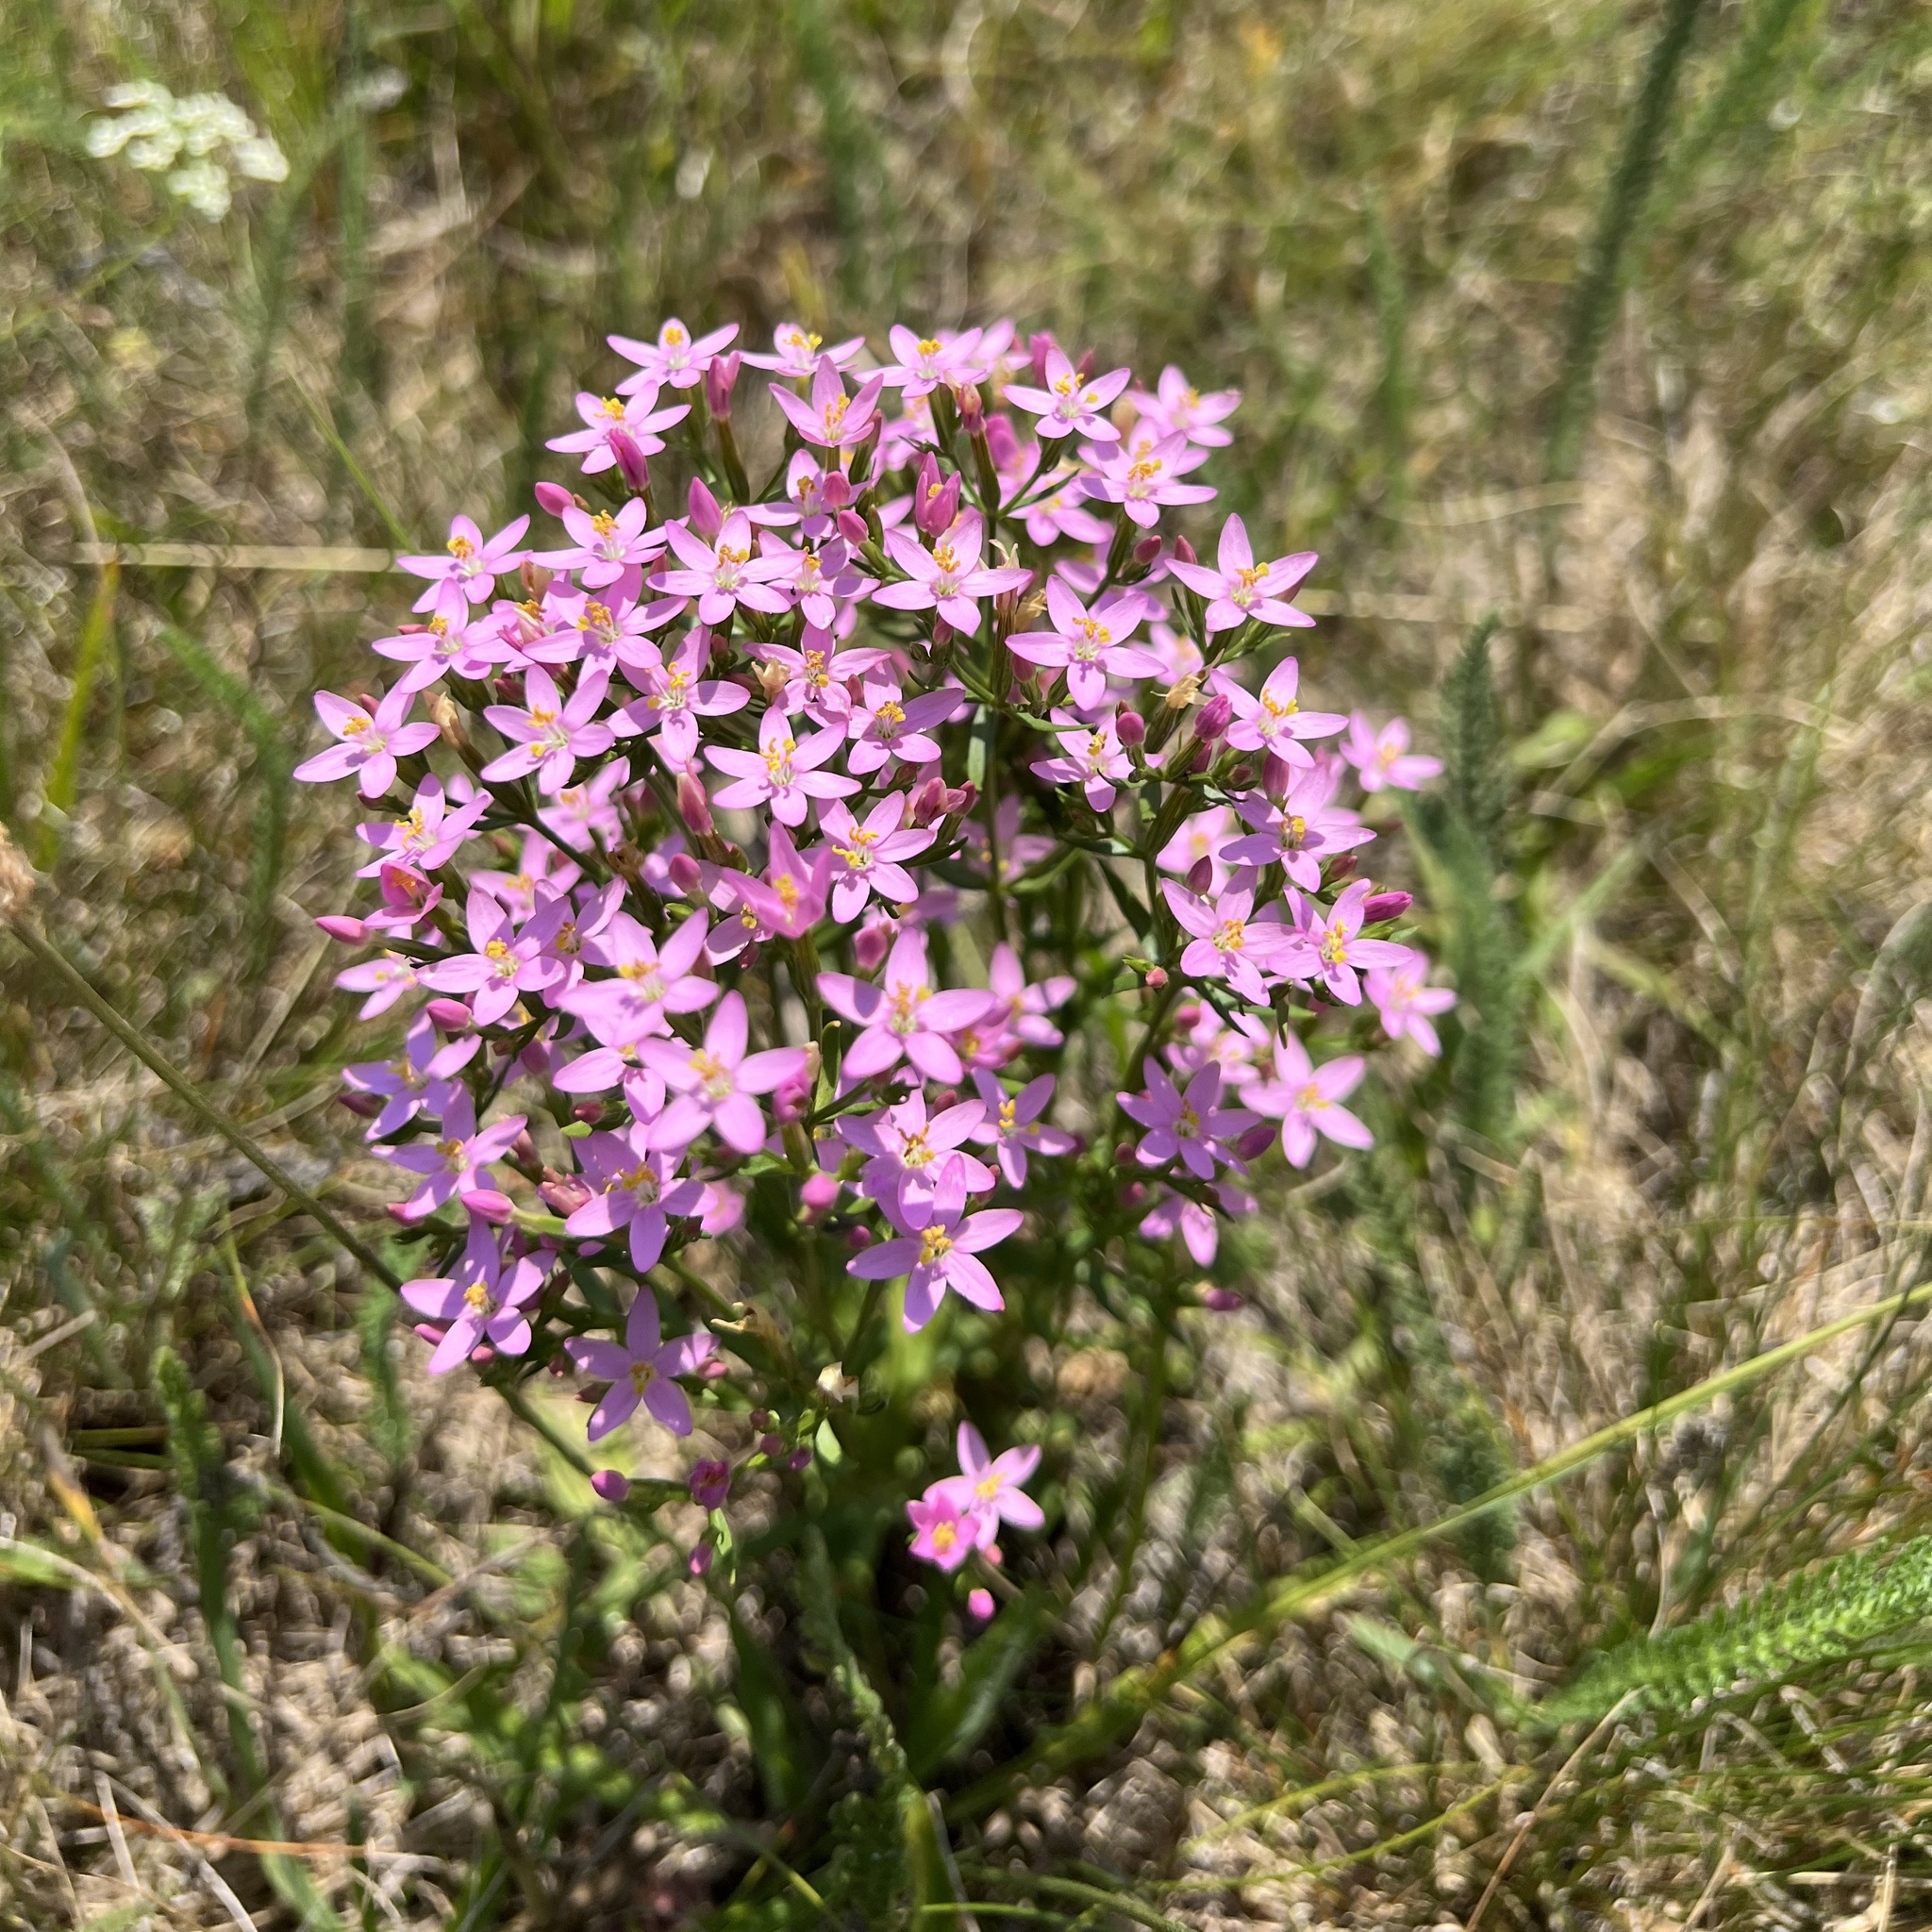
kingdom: Plantae
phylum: Tracheophyta
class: Magnoliopsida
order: Gentianales
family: Gentianaceae
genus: Centaurium
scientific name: Centaurium erythraea
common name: Common centaury
